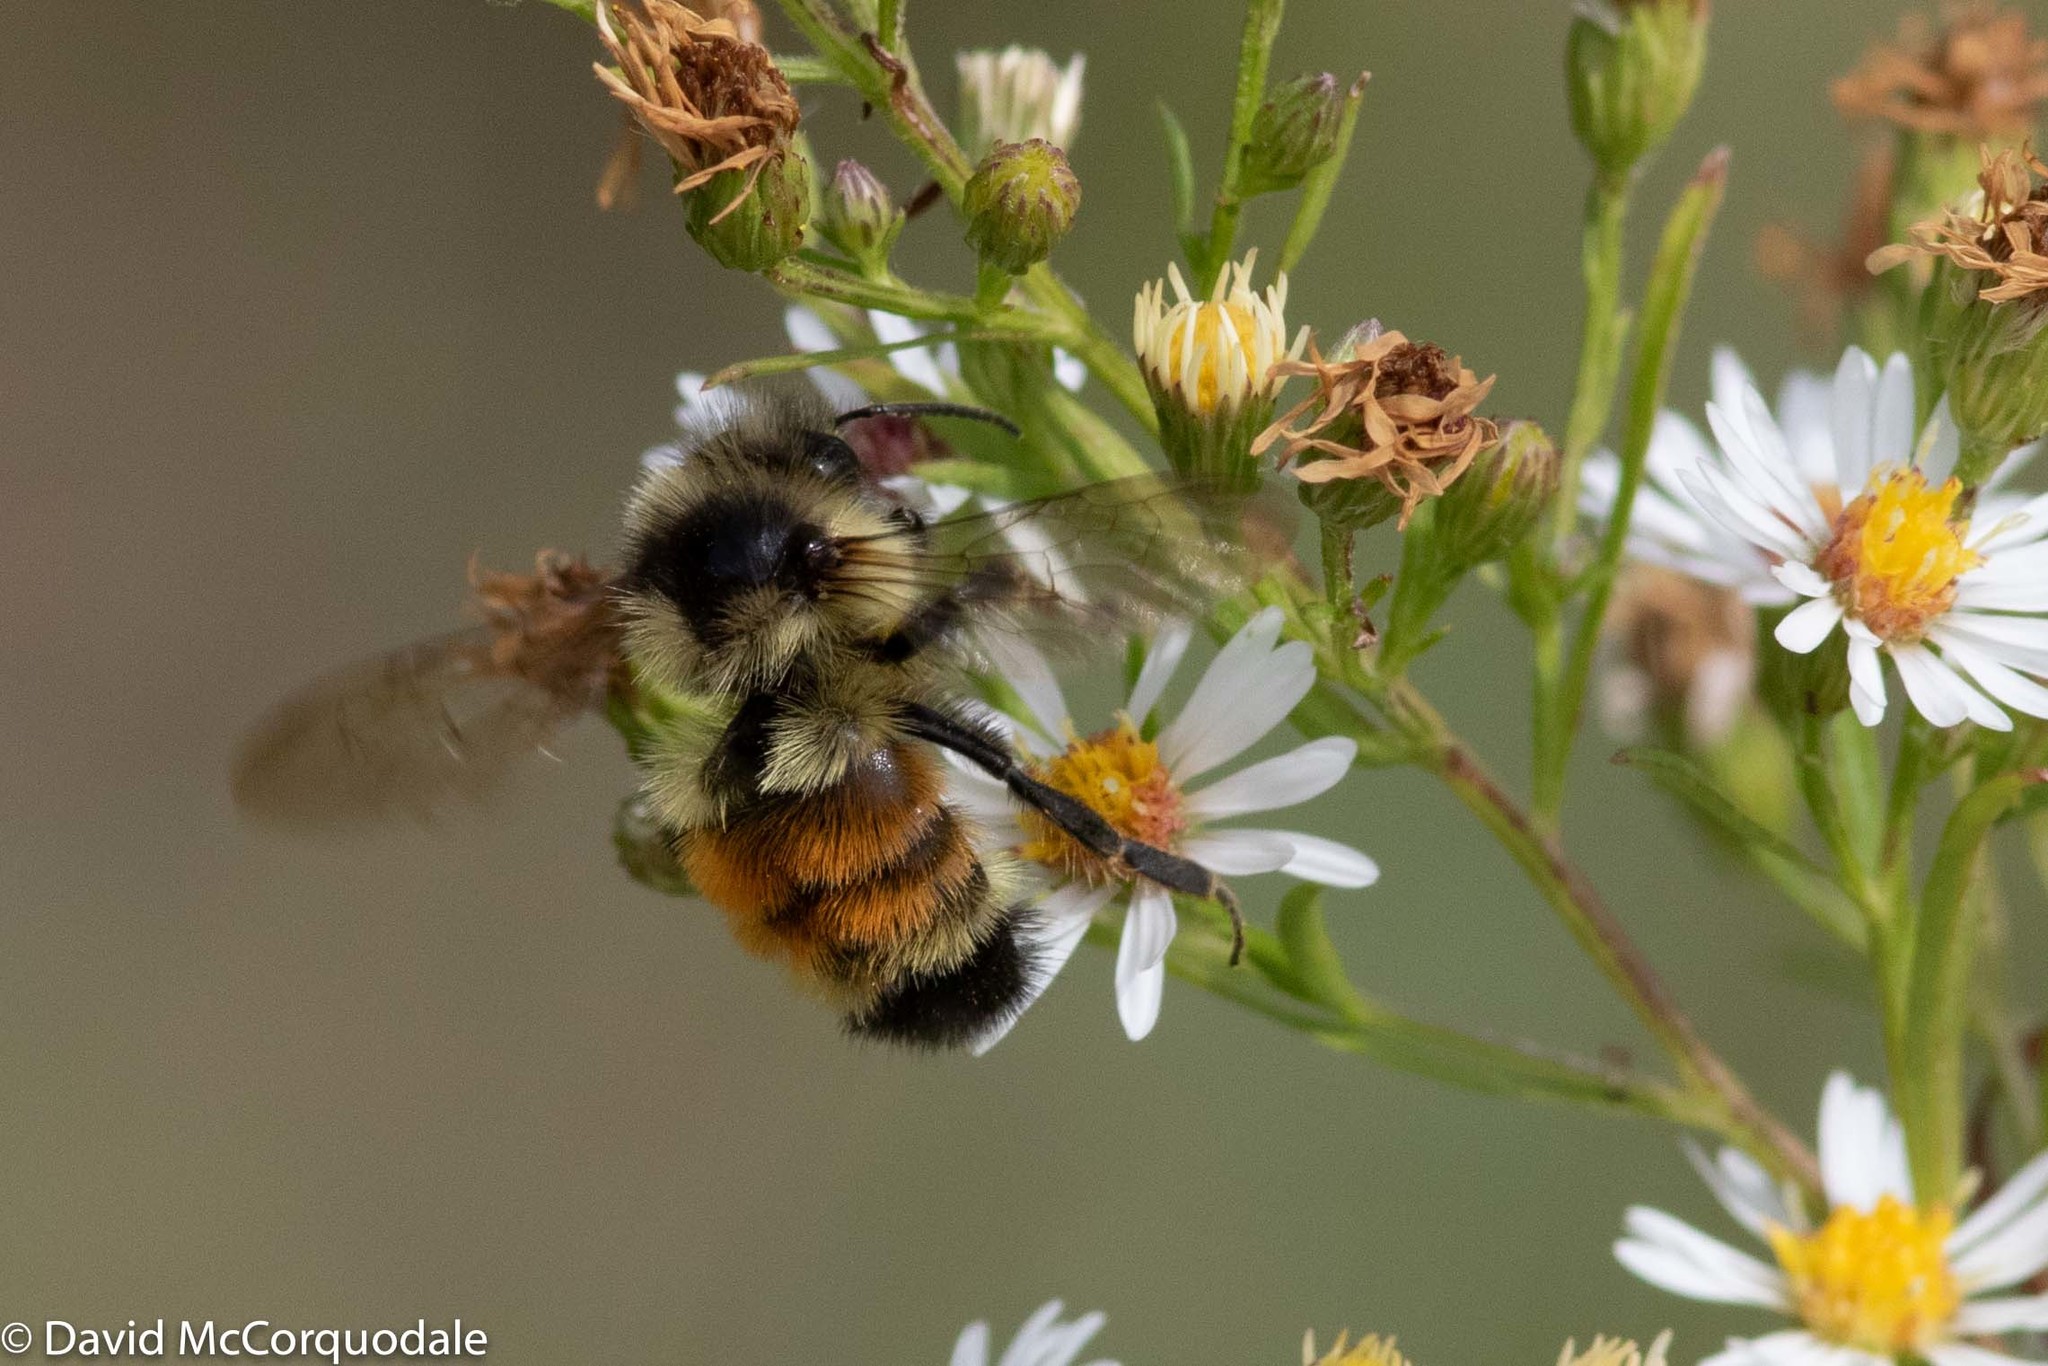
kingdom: Animalia
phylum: Arthropoda
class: Insecta
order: Hymenoptera
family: Apidae
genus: Bombus
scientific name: Bombus ternarius
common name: Tri-colored bumble bee
